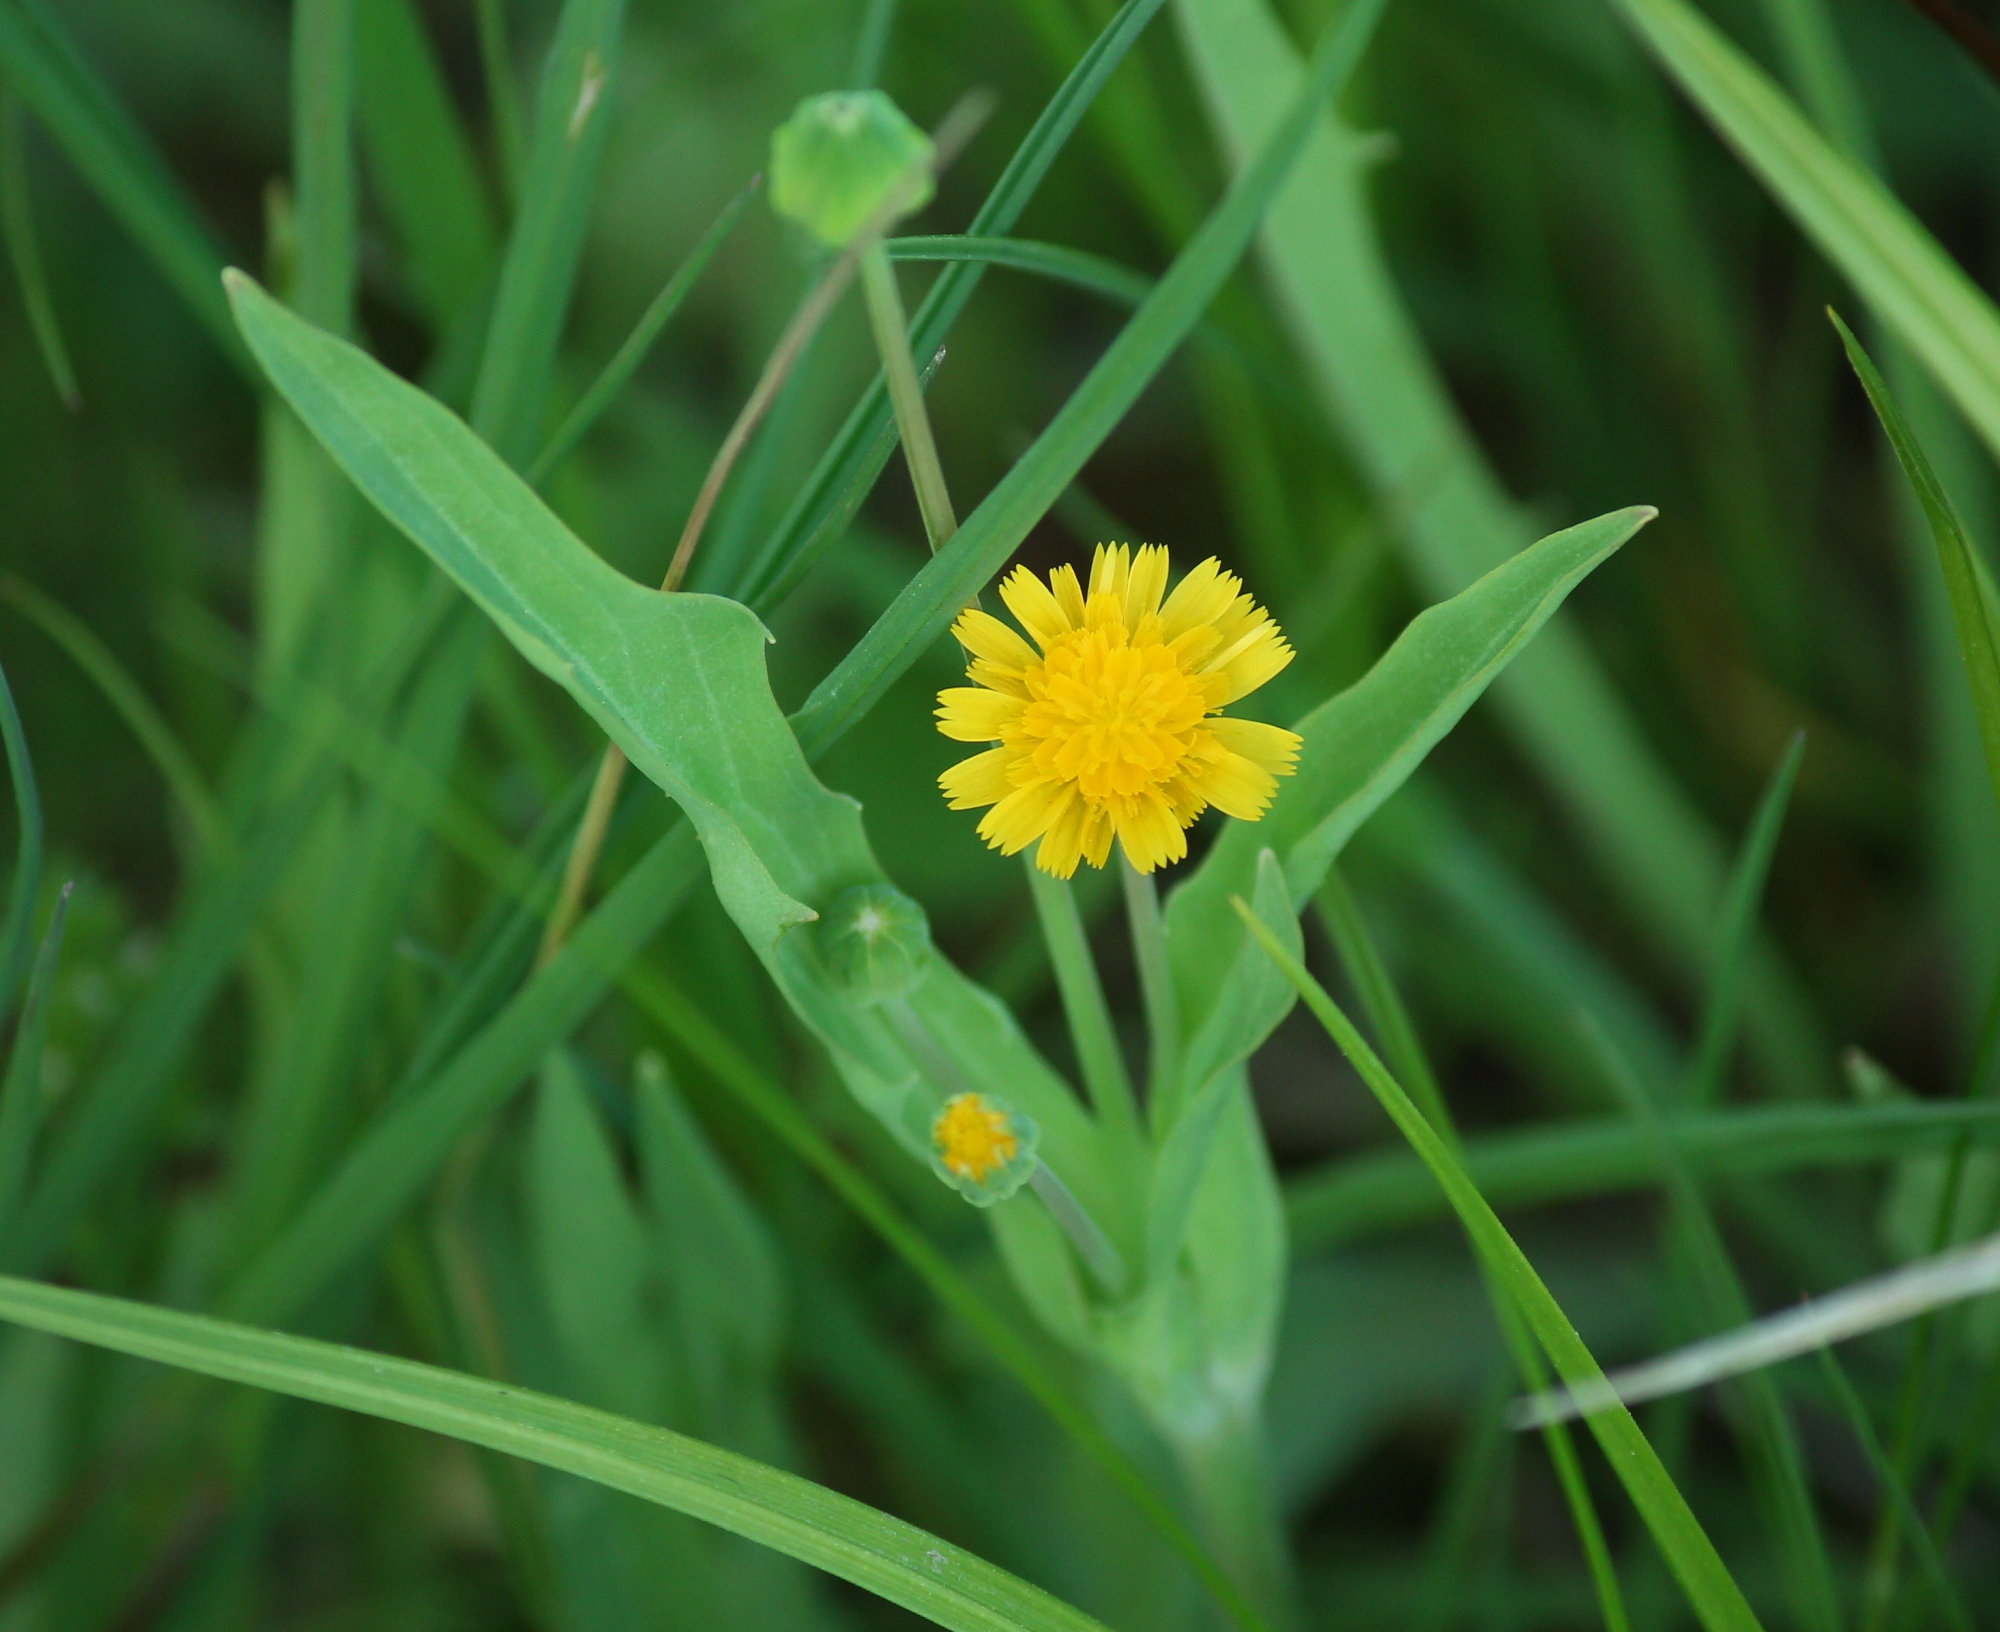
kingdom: Plantae
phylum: Tracheophyta
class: Magnoliopsida
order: Asterales
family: Asteraceae
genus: Krigia
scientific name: Krigia cespitosa
